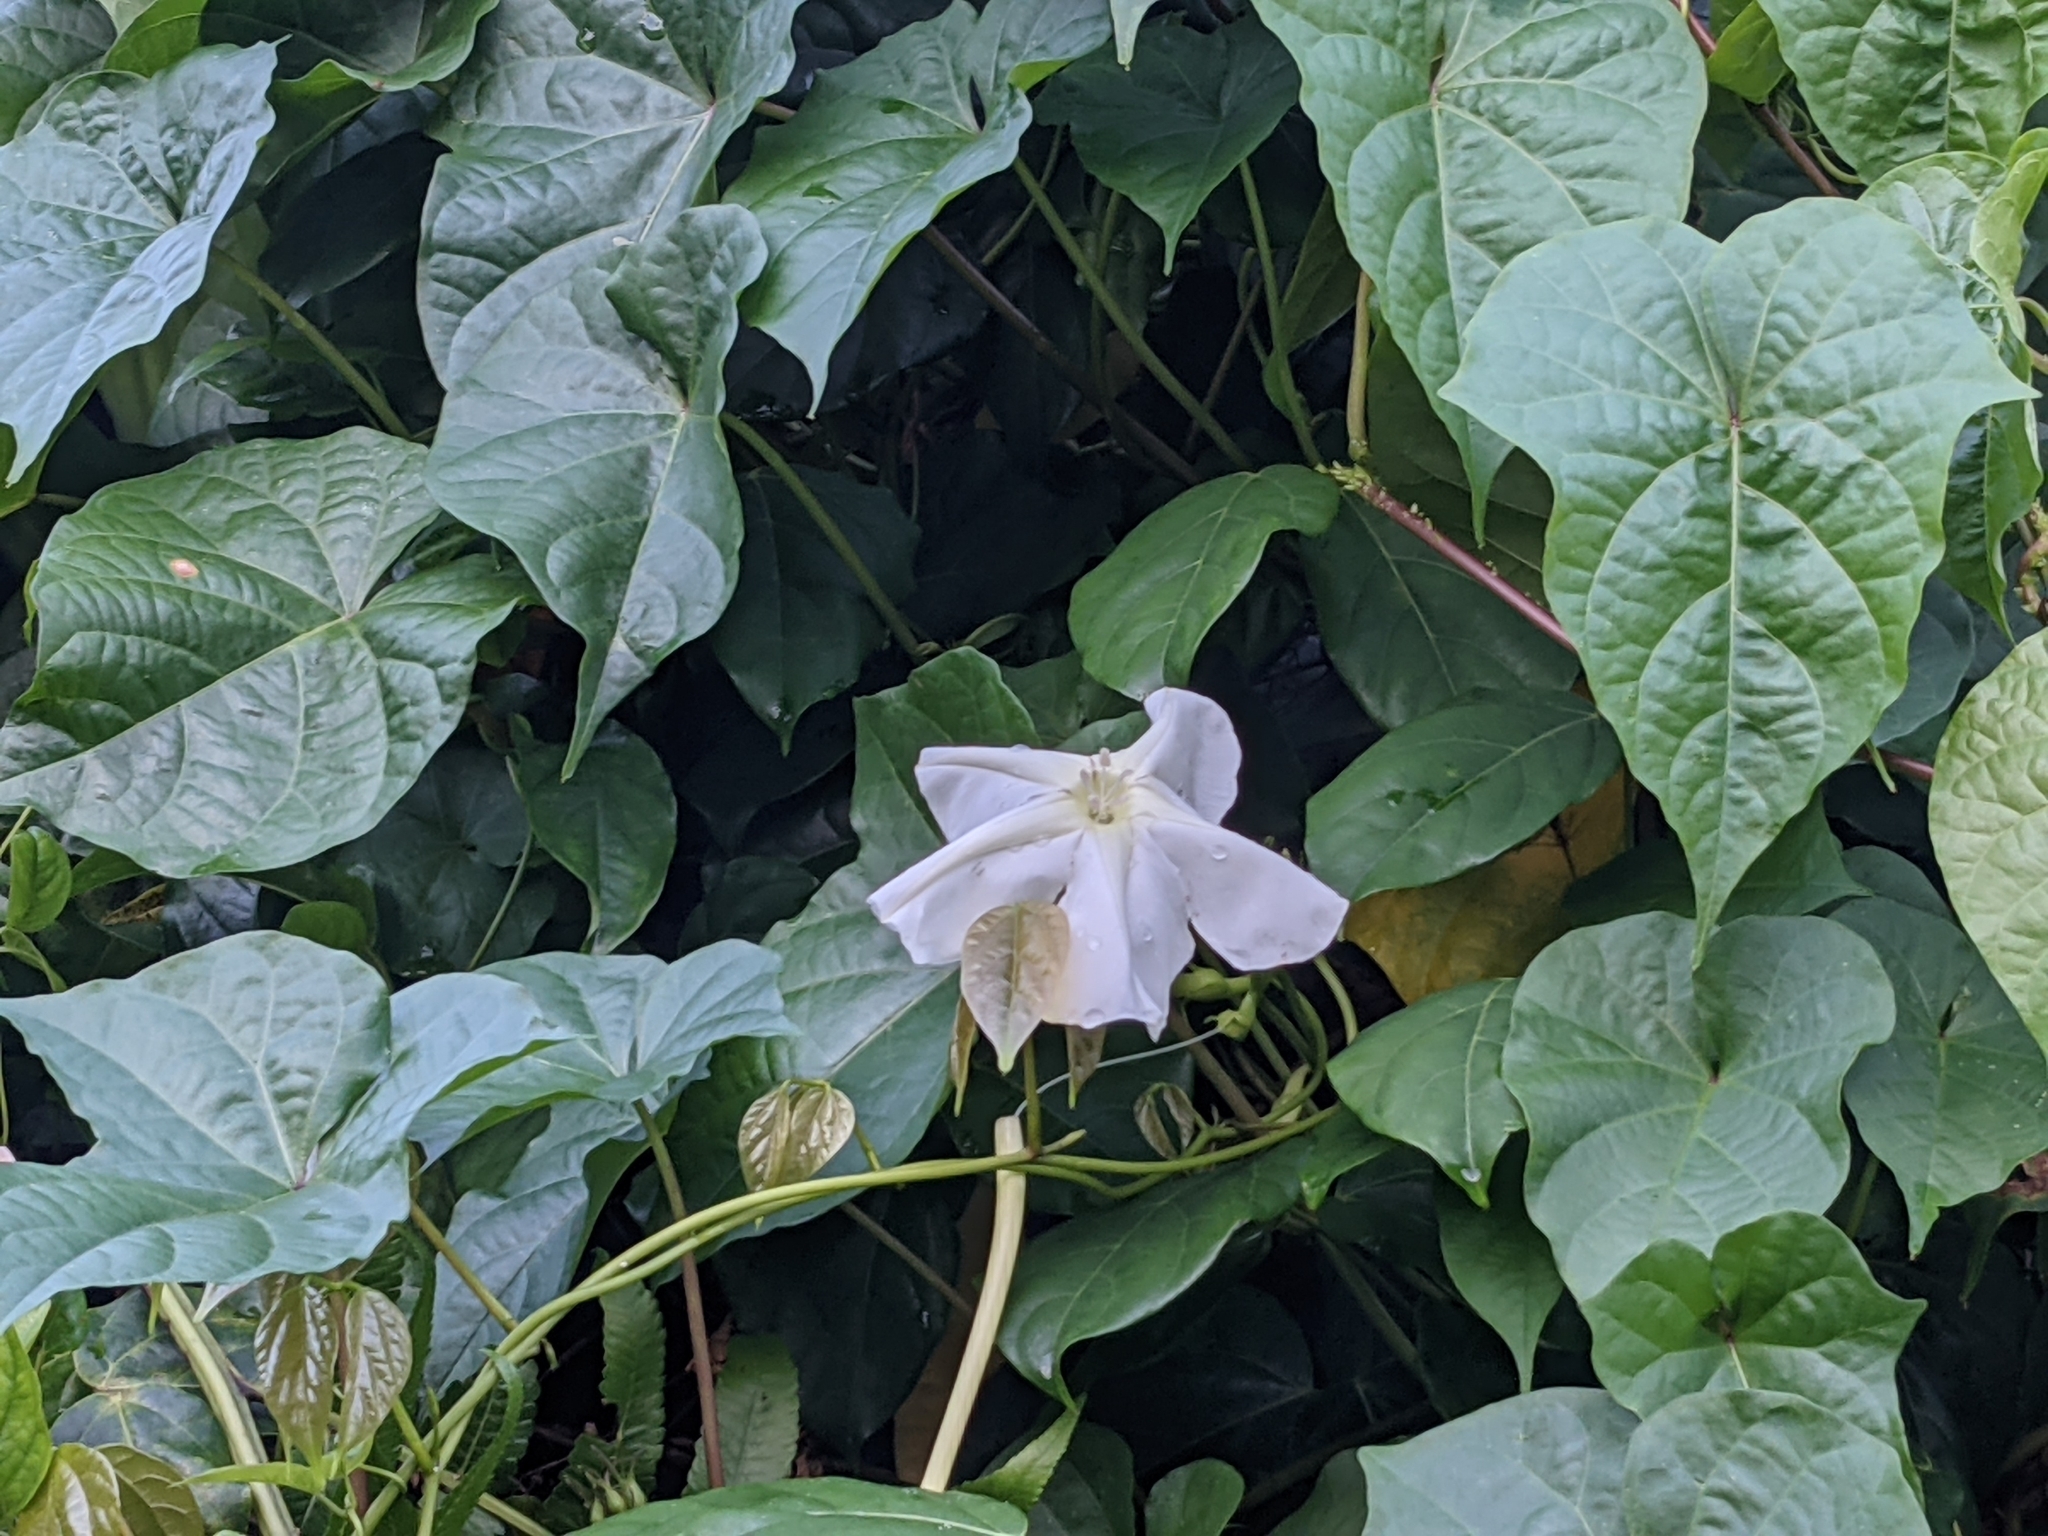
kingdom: Plantae
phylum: Tracheophyta
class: Magnoliopsida
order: Solanales
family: Convolvulaceae
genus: Ipomoea
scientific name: Ipomoea alba
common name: Moonflower
